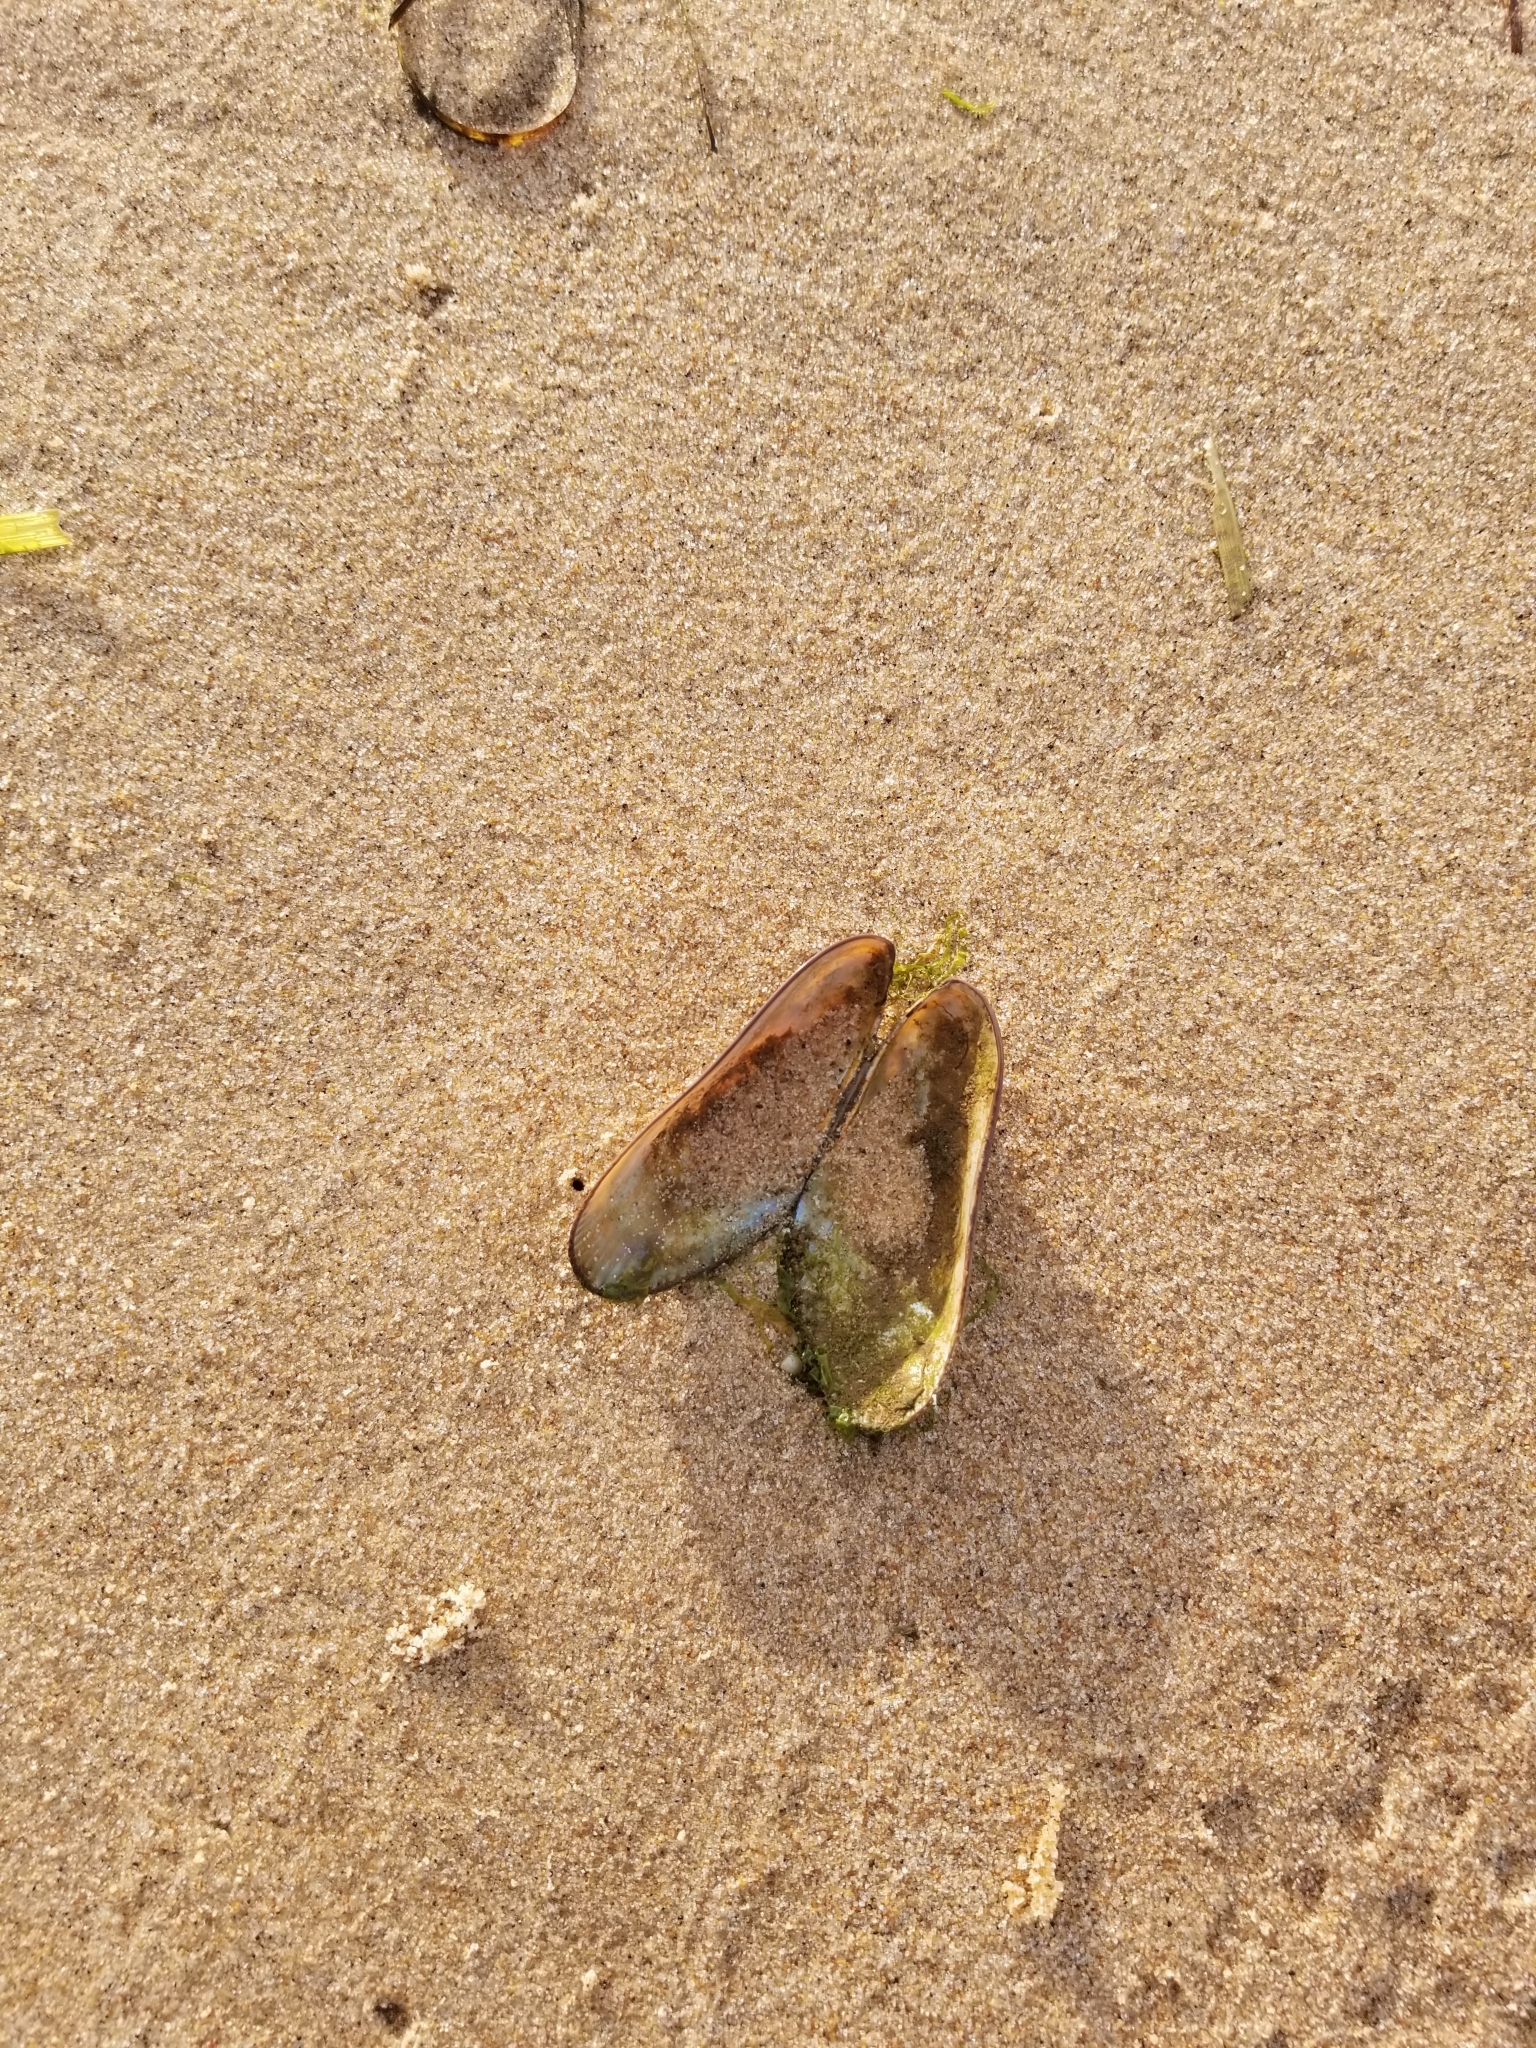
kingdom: Animalia
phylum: Mollusca
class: Bivalvia
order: Mytilida
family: Mytilidae
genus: Geukensia
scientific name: Geukensia demissa
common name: Ribbed mussel
